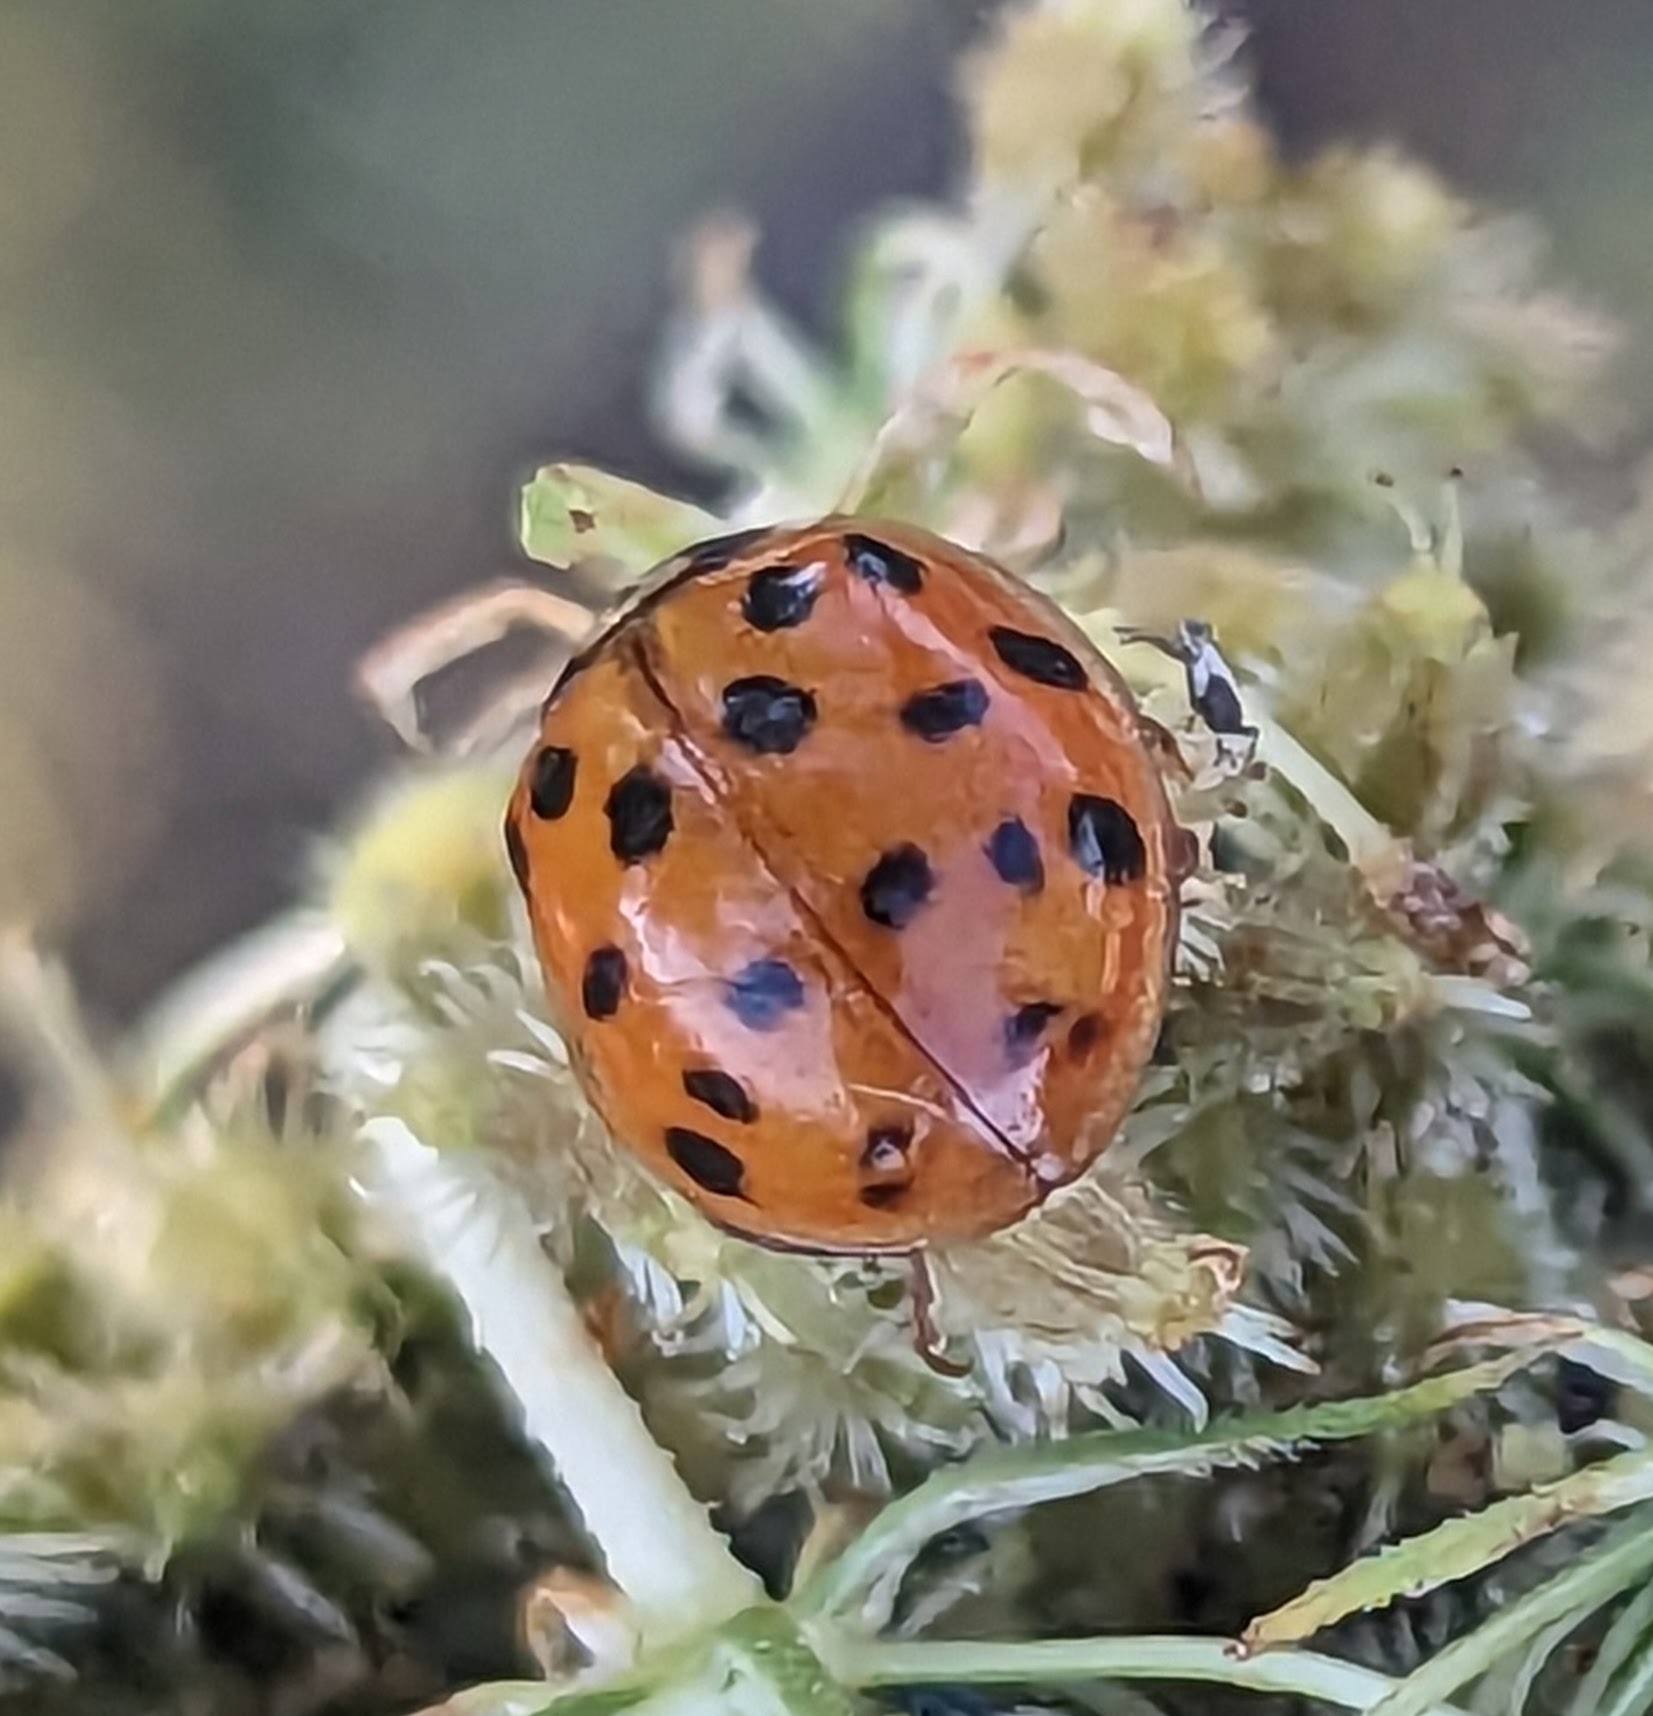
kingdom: Animalia
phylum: Arthropoda
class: Insecta
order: Coleoptera
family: Coccinellidae
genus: Harmonia
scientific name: Harmonia axyridis
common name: Harlequin ladybird
